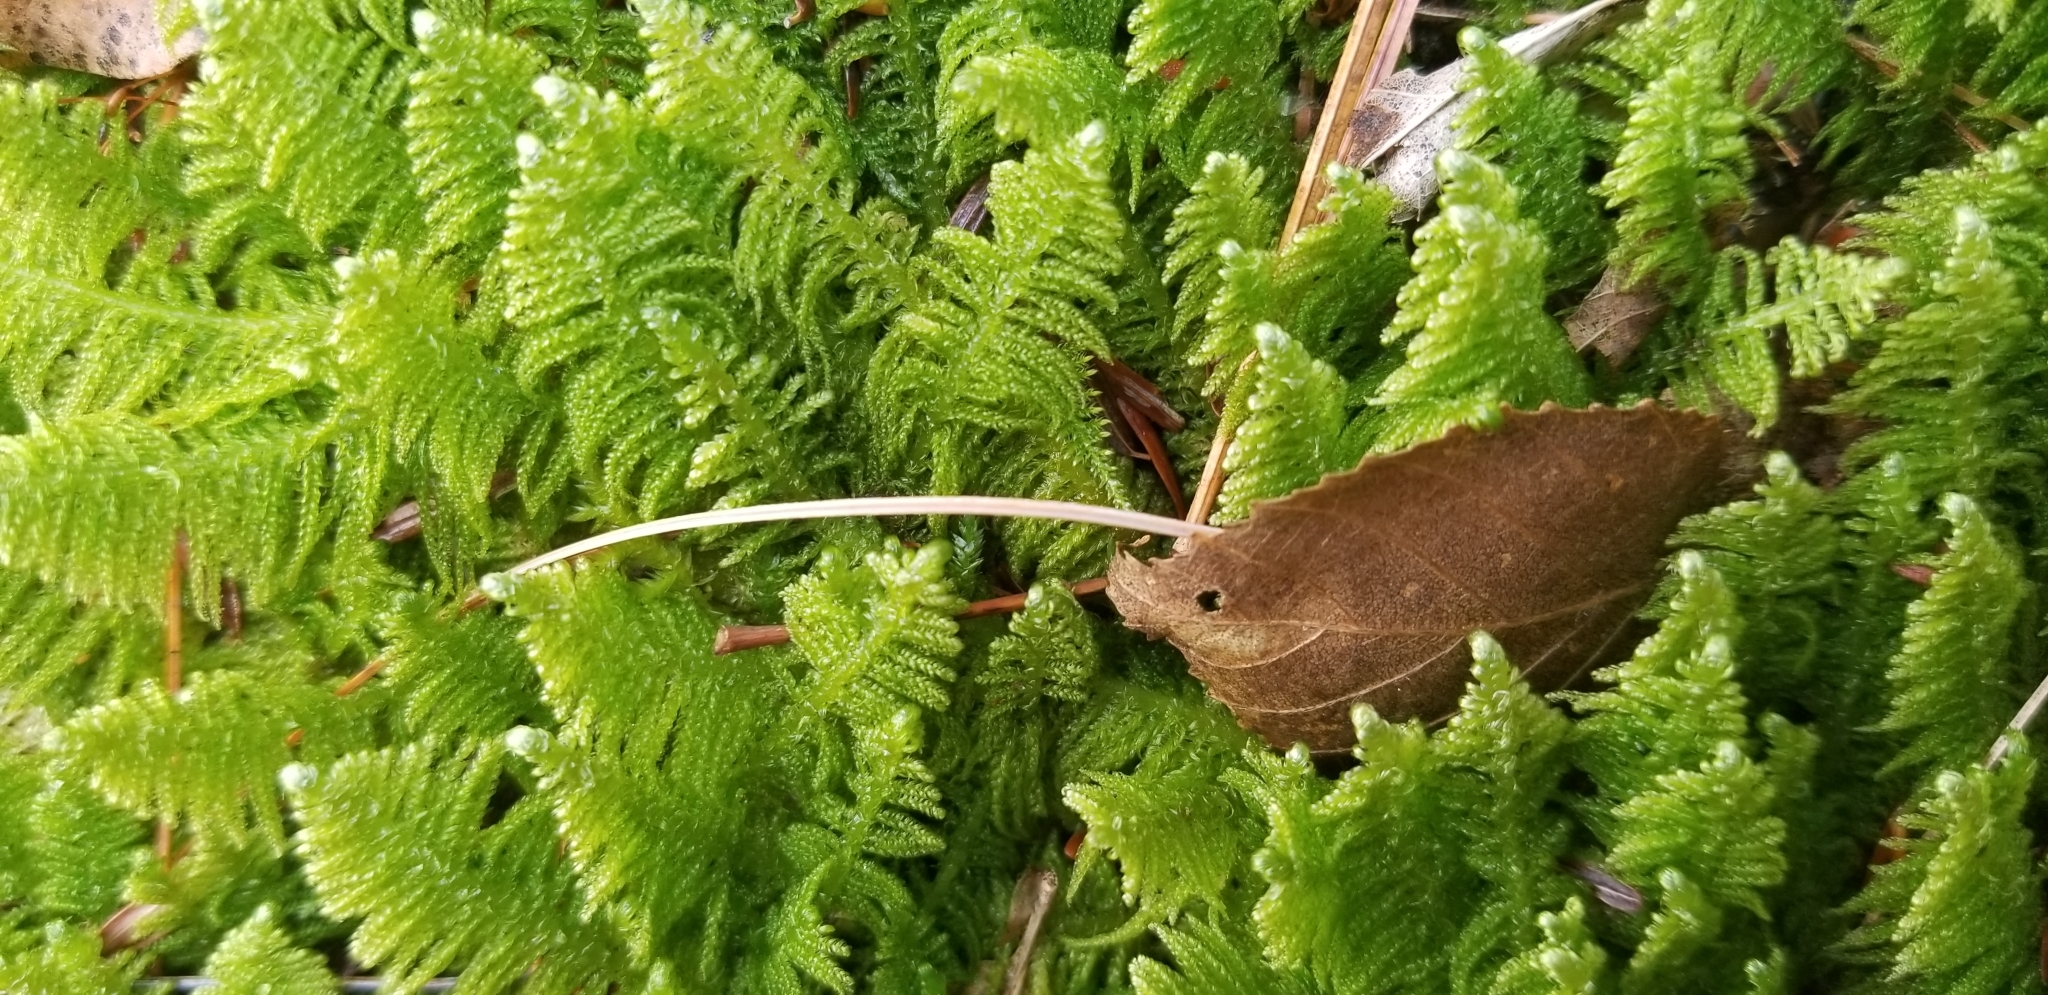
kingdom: Plantae
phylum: Bryophyta
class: Bryopsida
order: Hypnales
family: Pylaisiaceae
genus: Ptilium
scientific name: Ptilium crista-castrensis
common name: Knight's plume moss
